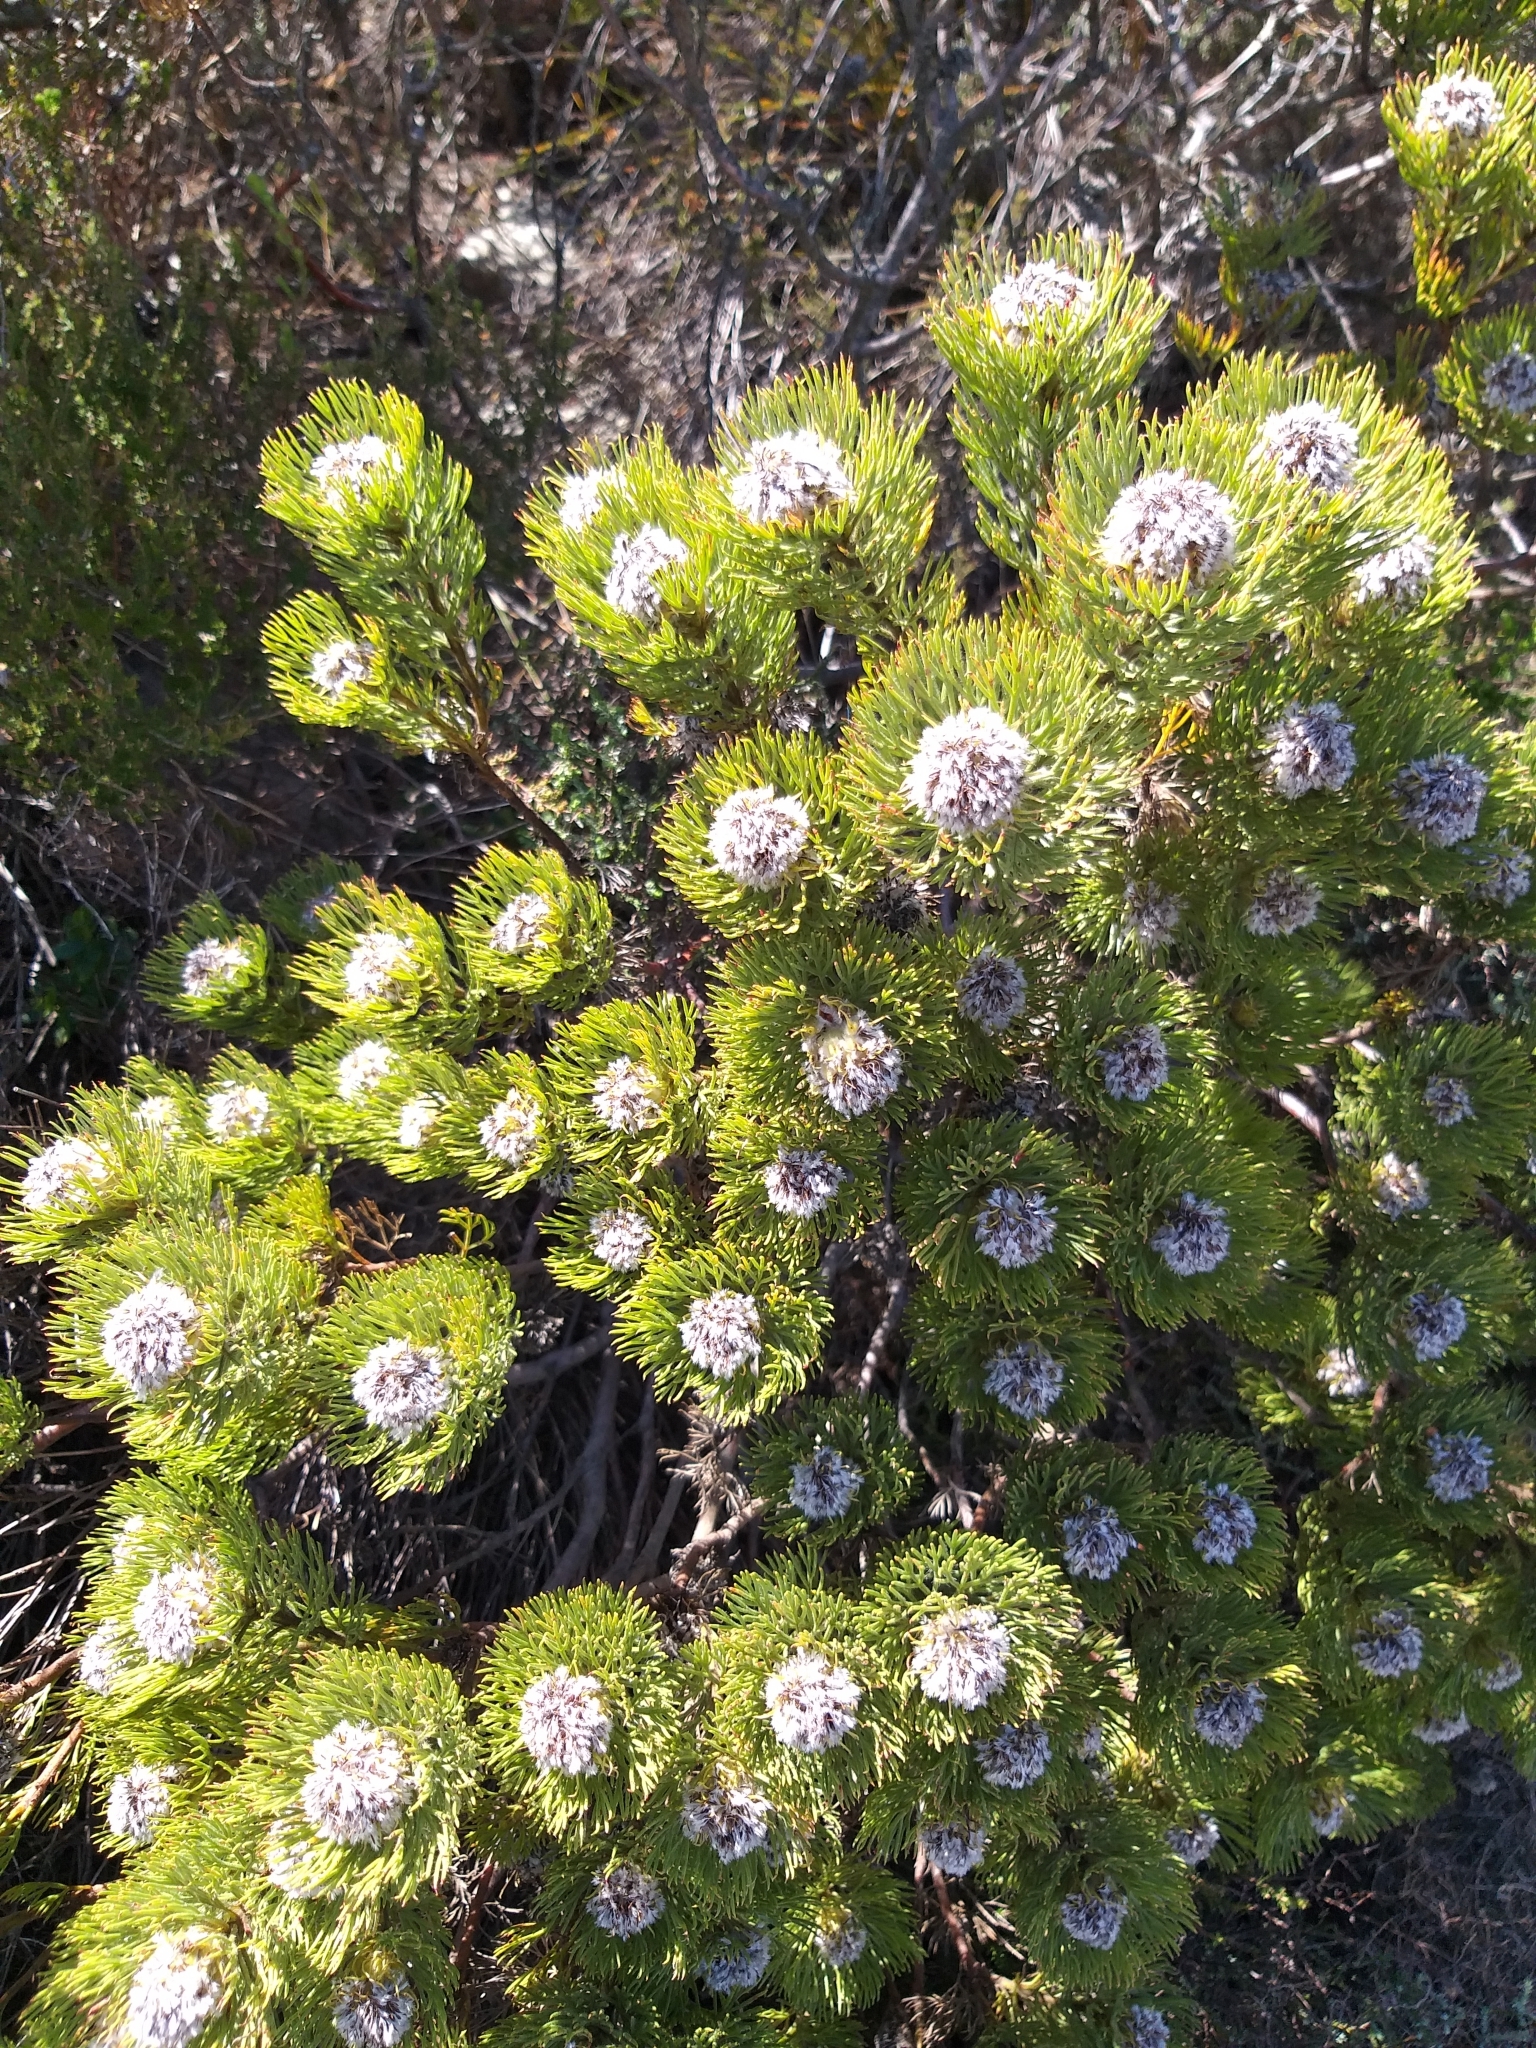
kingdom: Plantae
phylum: Tracheophyta
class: Magnoliopsida
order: Proteales
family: Proteaceae
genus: Serruria
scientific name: Serruria villosa
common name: Golden spiderhead
